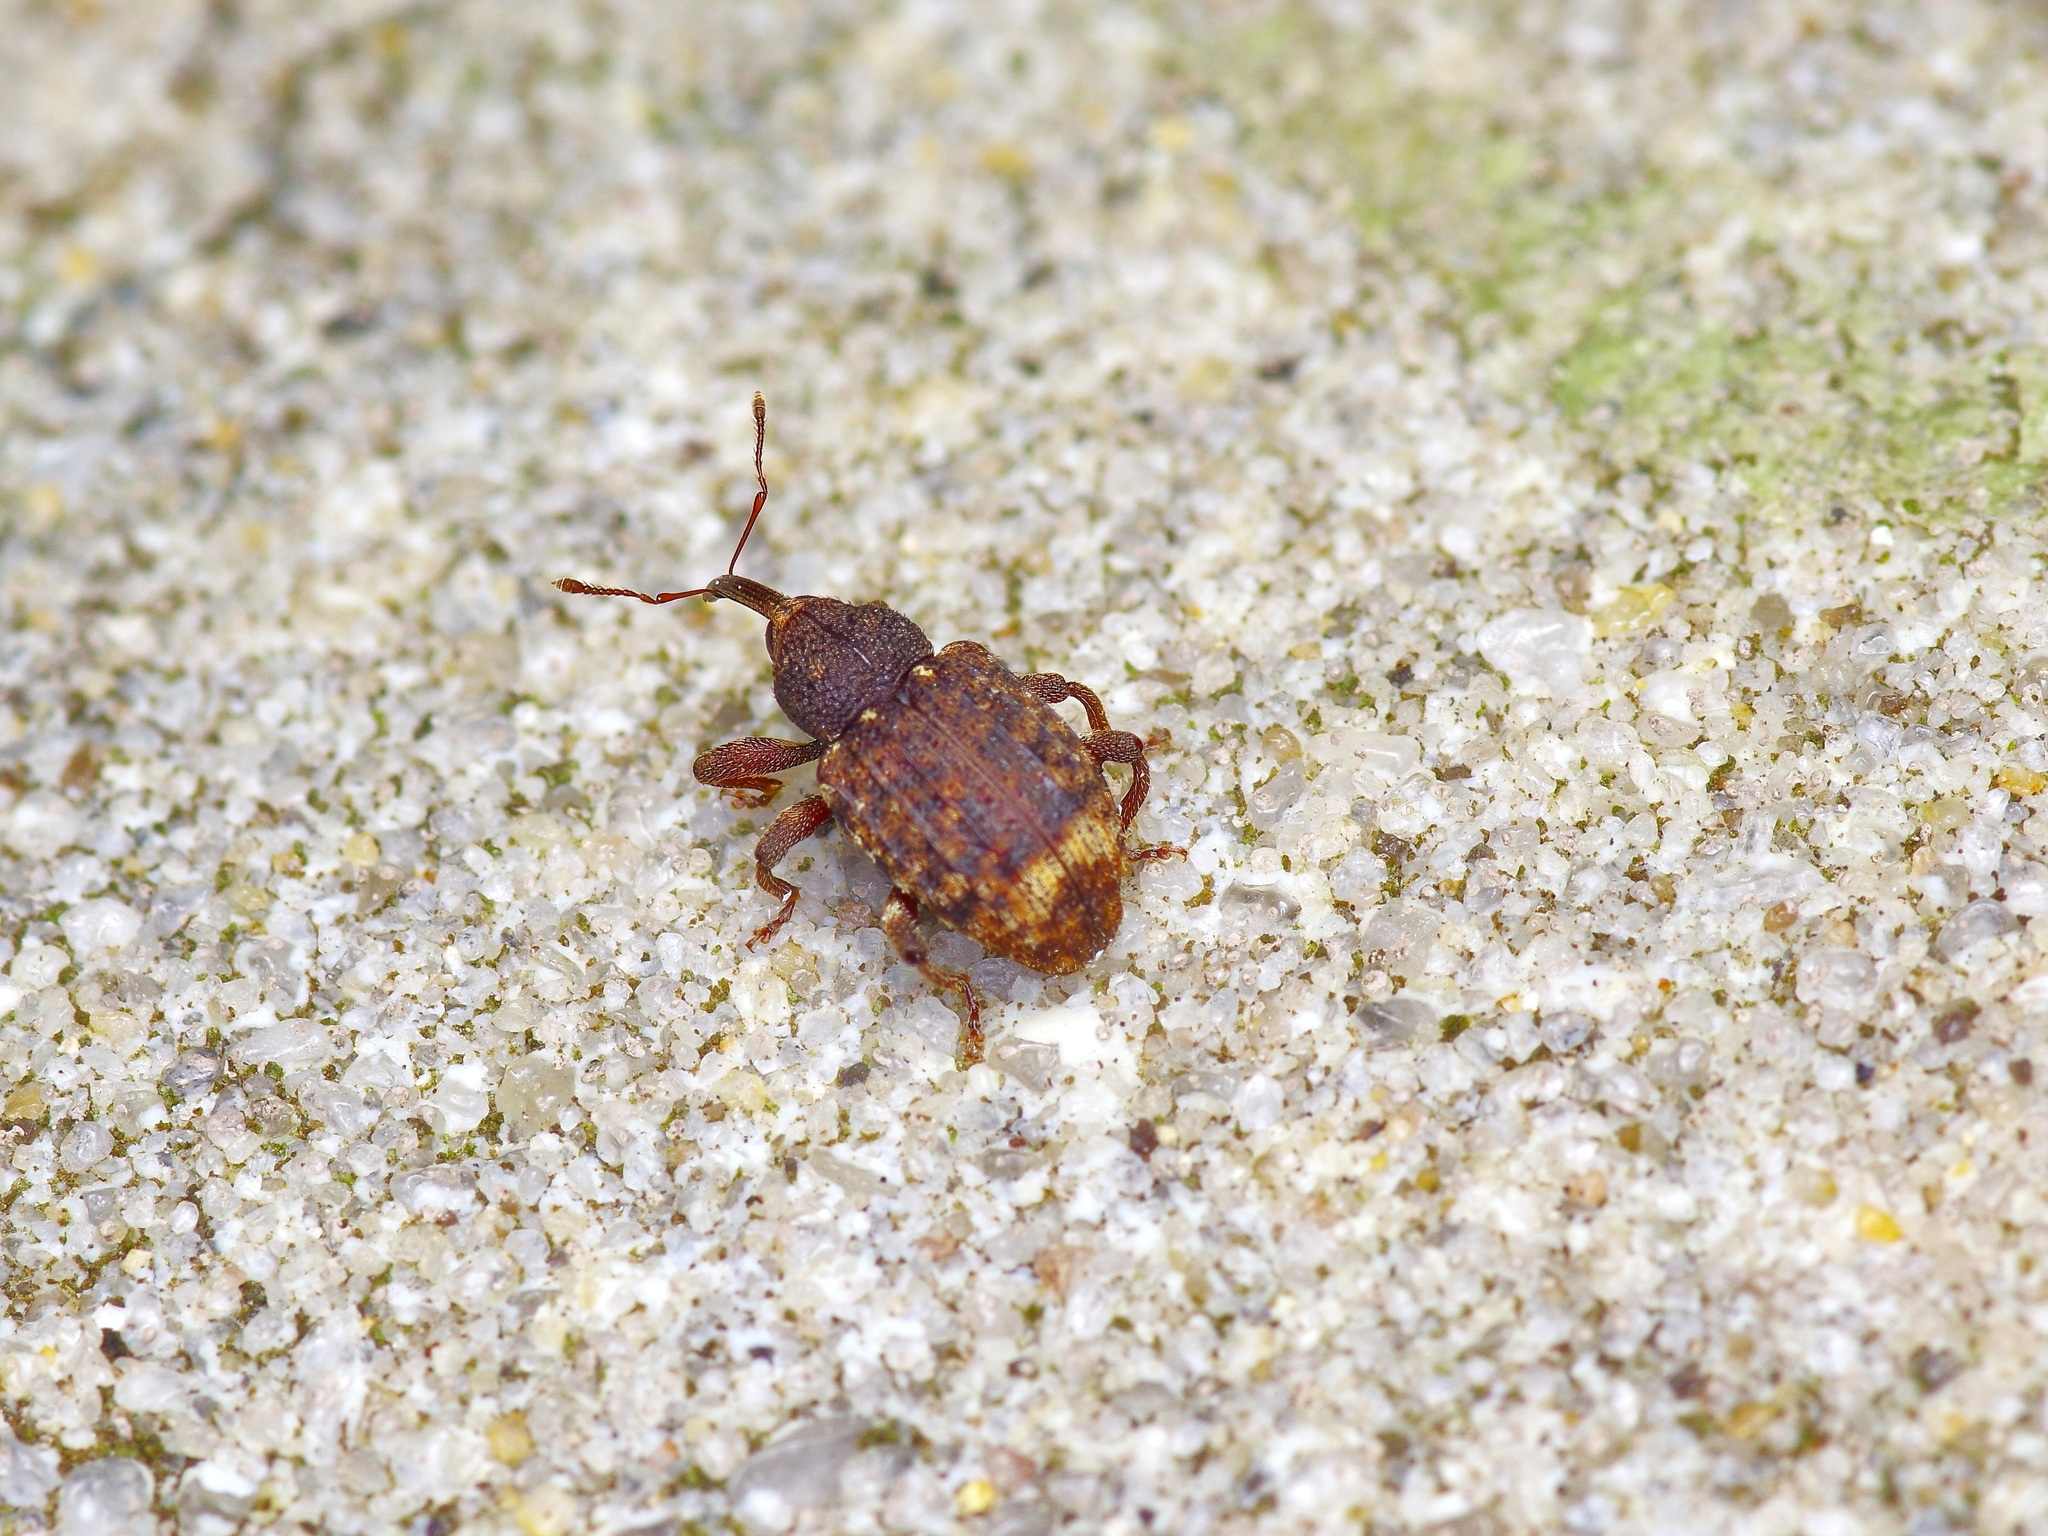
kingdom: Animalia
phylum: Arthropoda
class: Insecta
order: Coleoptera
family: Curculionidae
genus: Conotrachelus
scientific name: Conotrachelus carinifer
